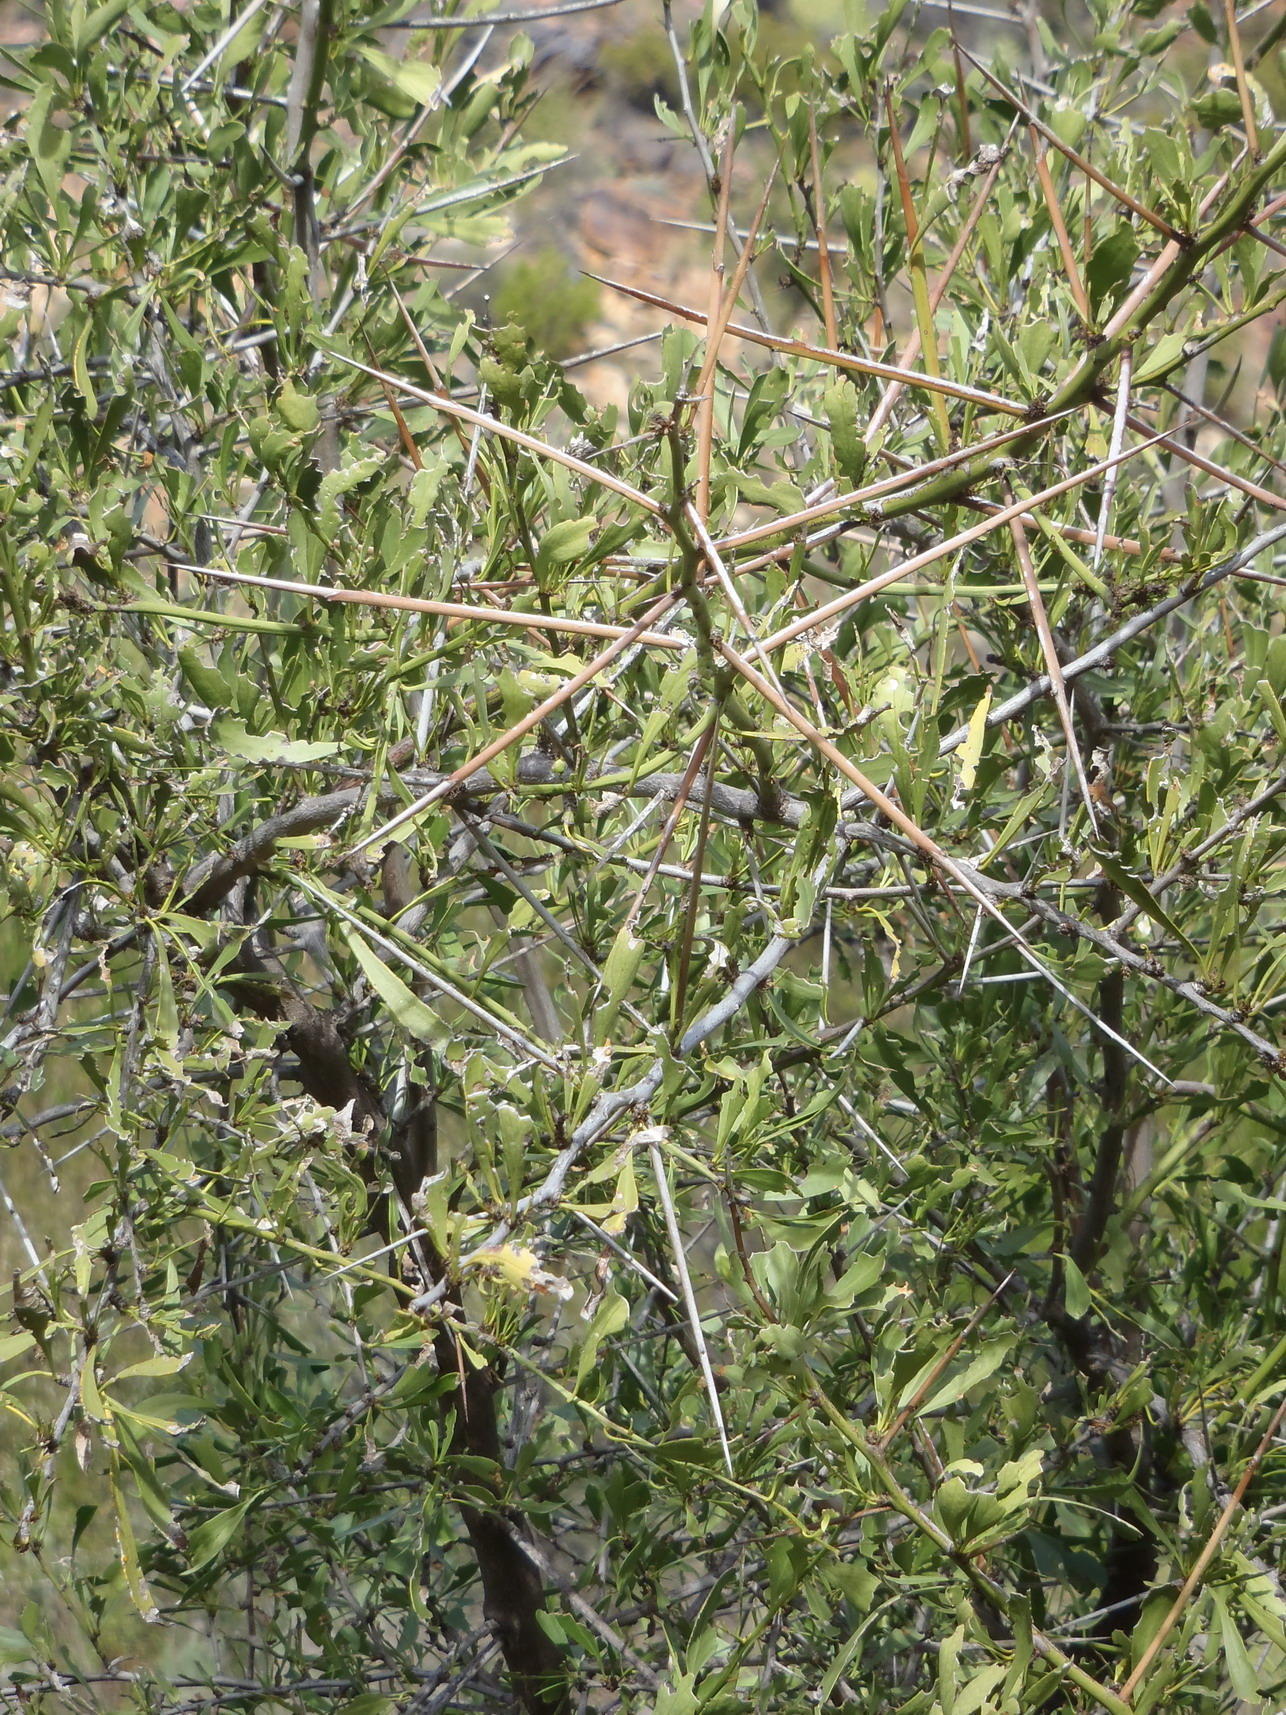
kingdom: Plantae
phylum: Tracheophyta
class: Magnoliopsida
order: Celastrales
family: Celastraceae
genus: Gymnosporia
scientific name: Gymnosporia buxifolia
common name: Common spike-thorn
